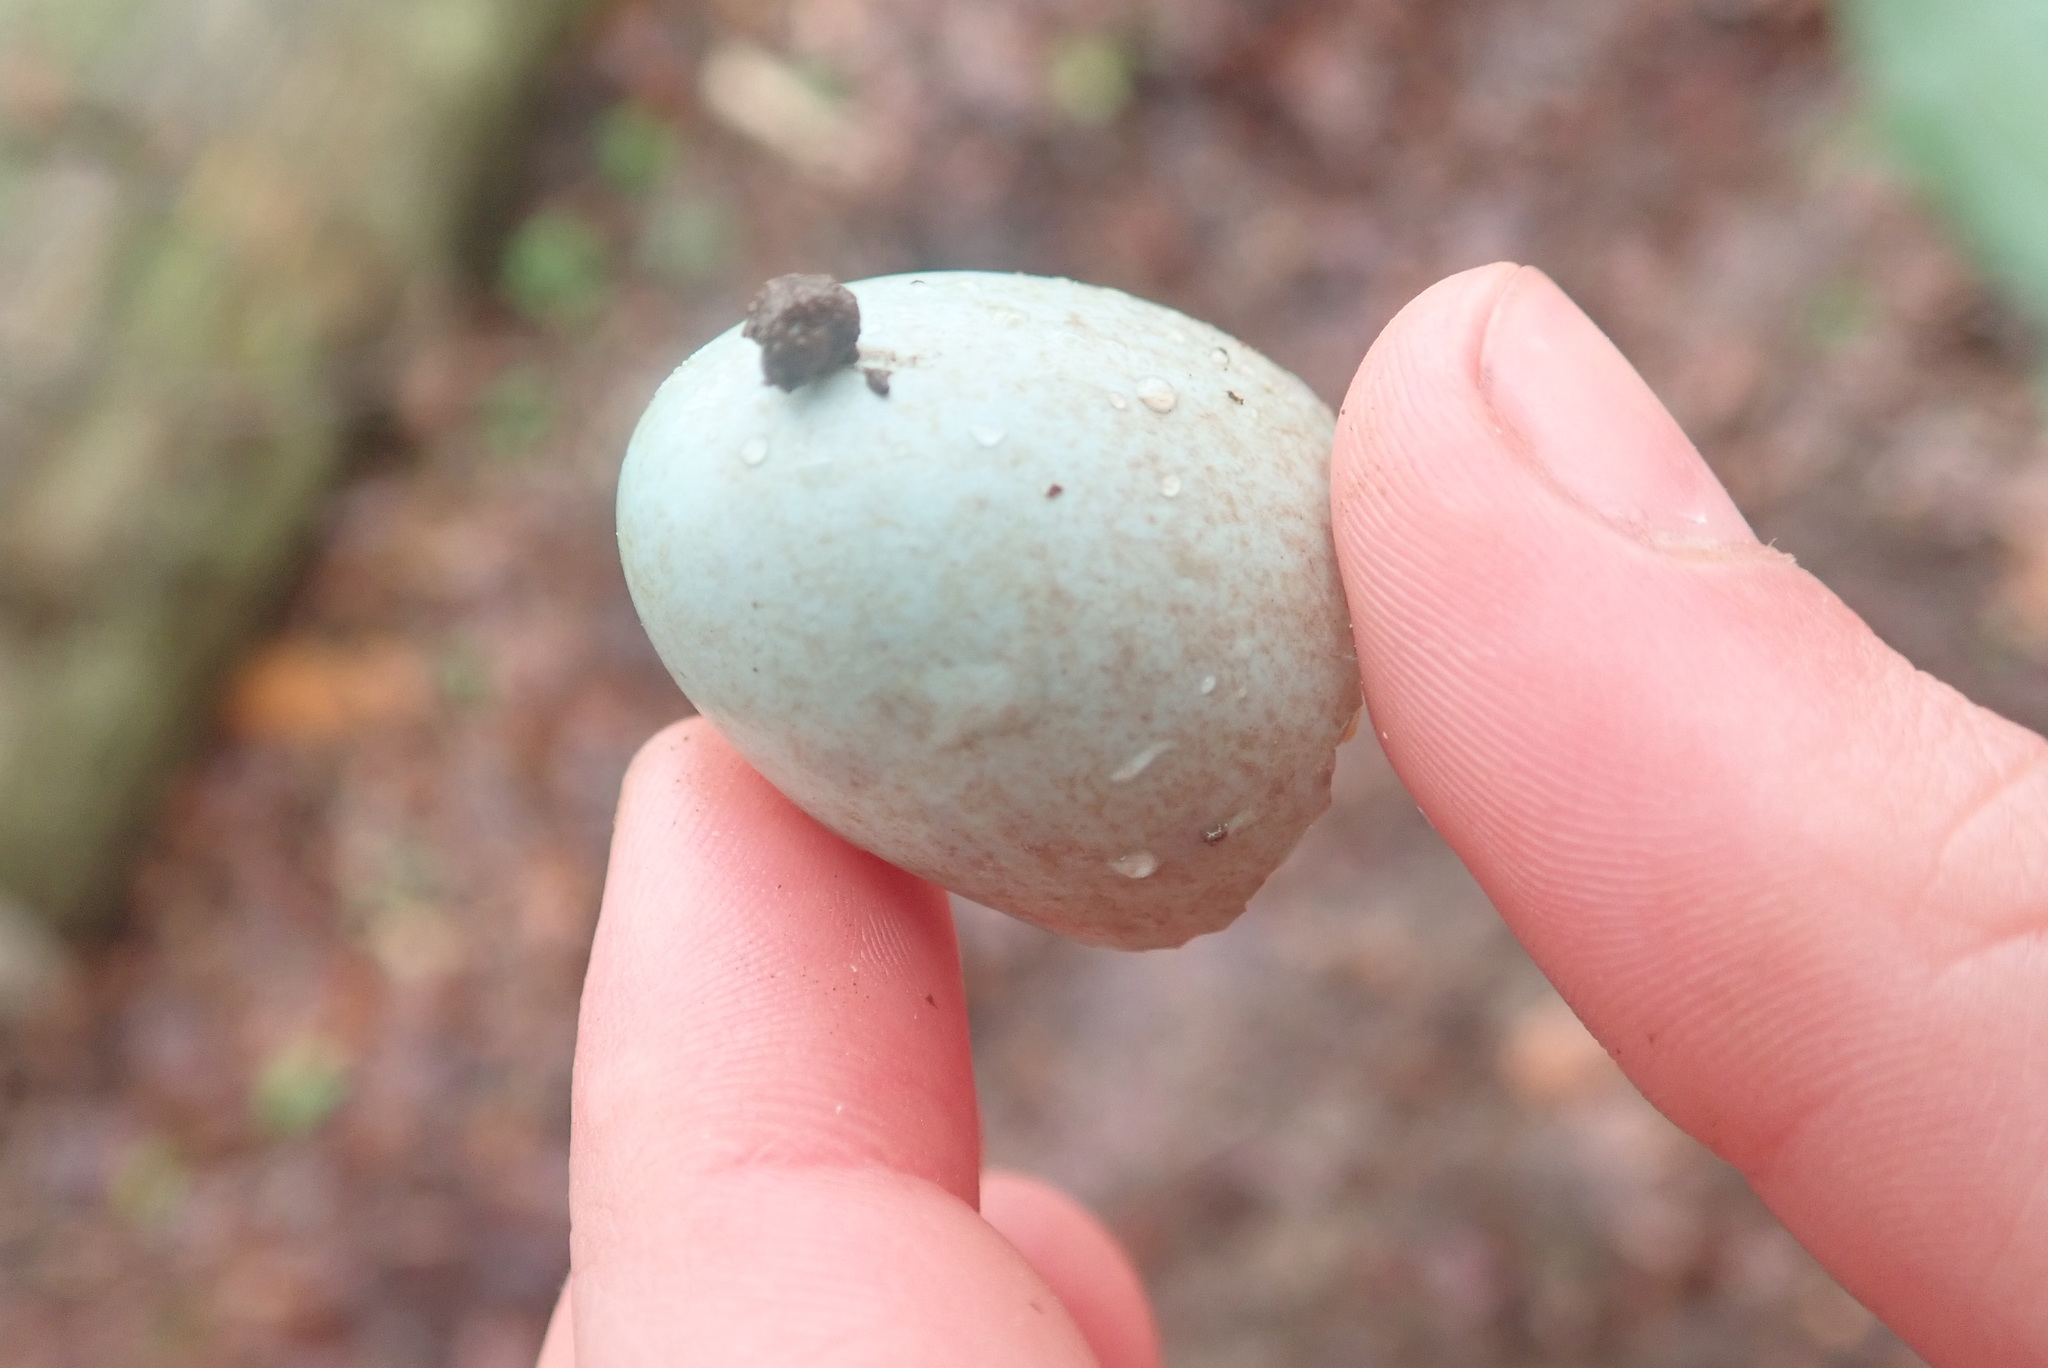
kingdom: Animalia
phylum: Chordata
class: Aves
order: Passeriformes
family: Turdidae
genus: Turdus
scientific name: Turdus merula
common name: Common blackbird
